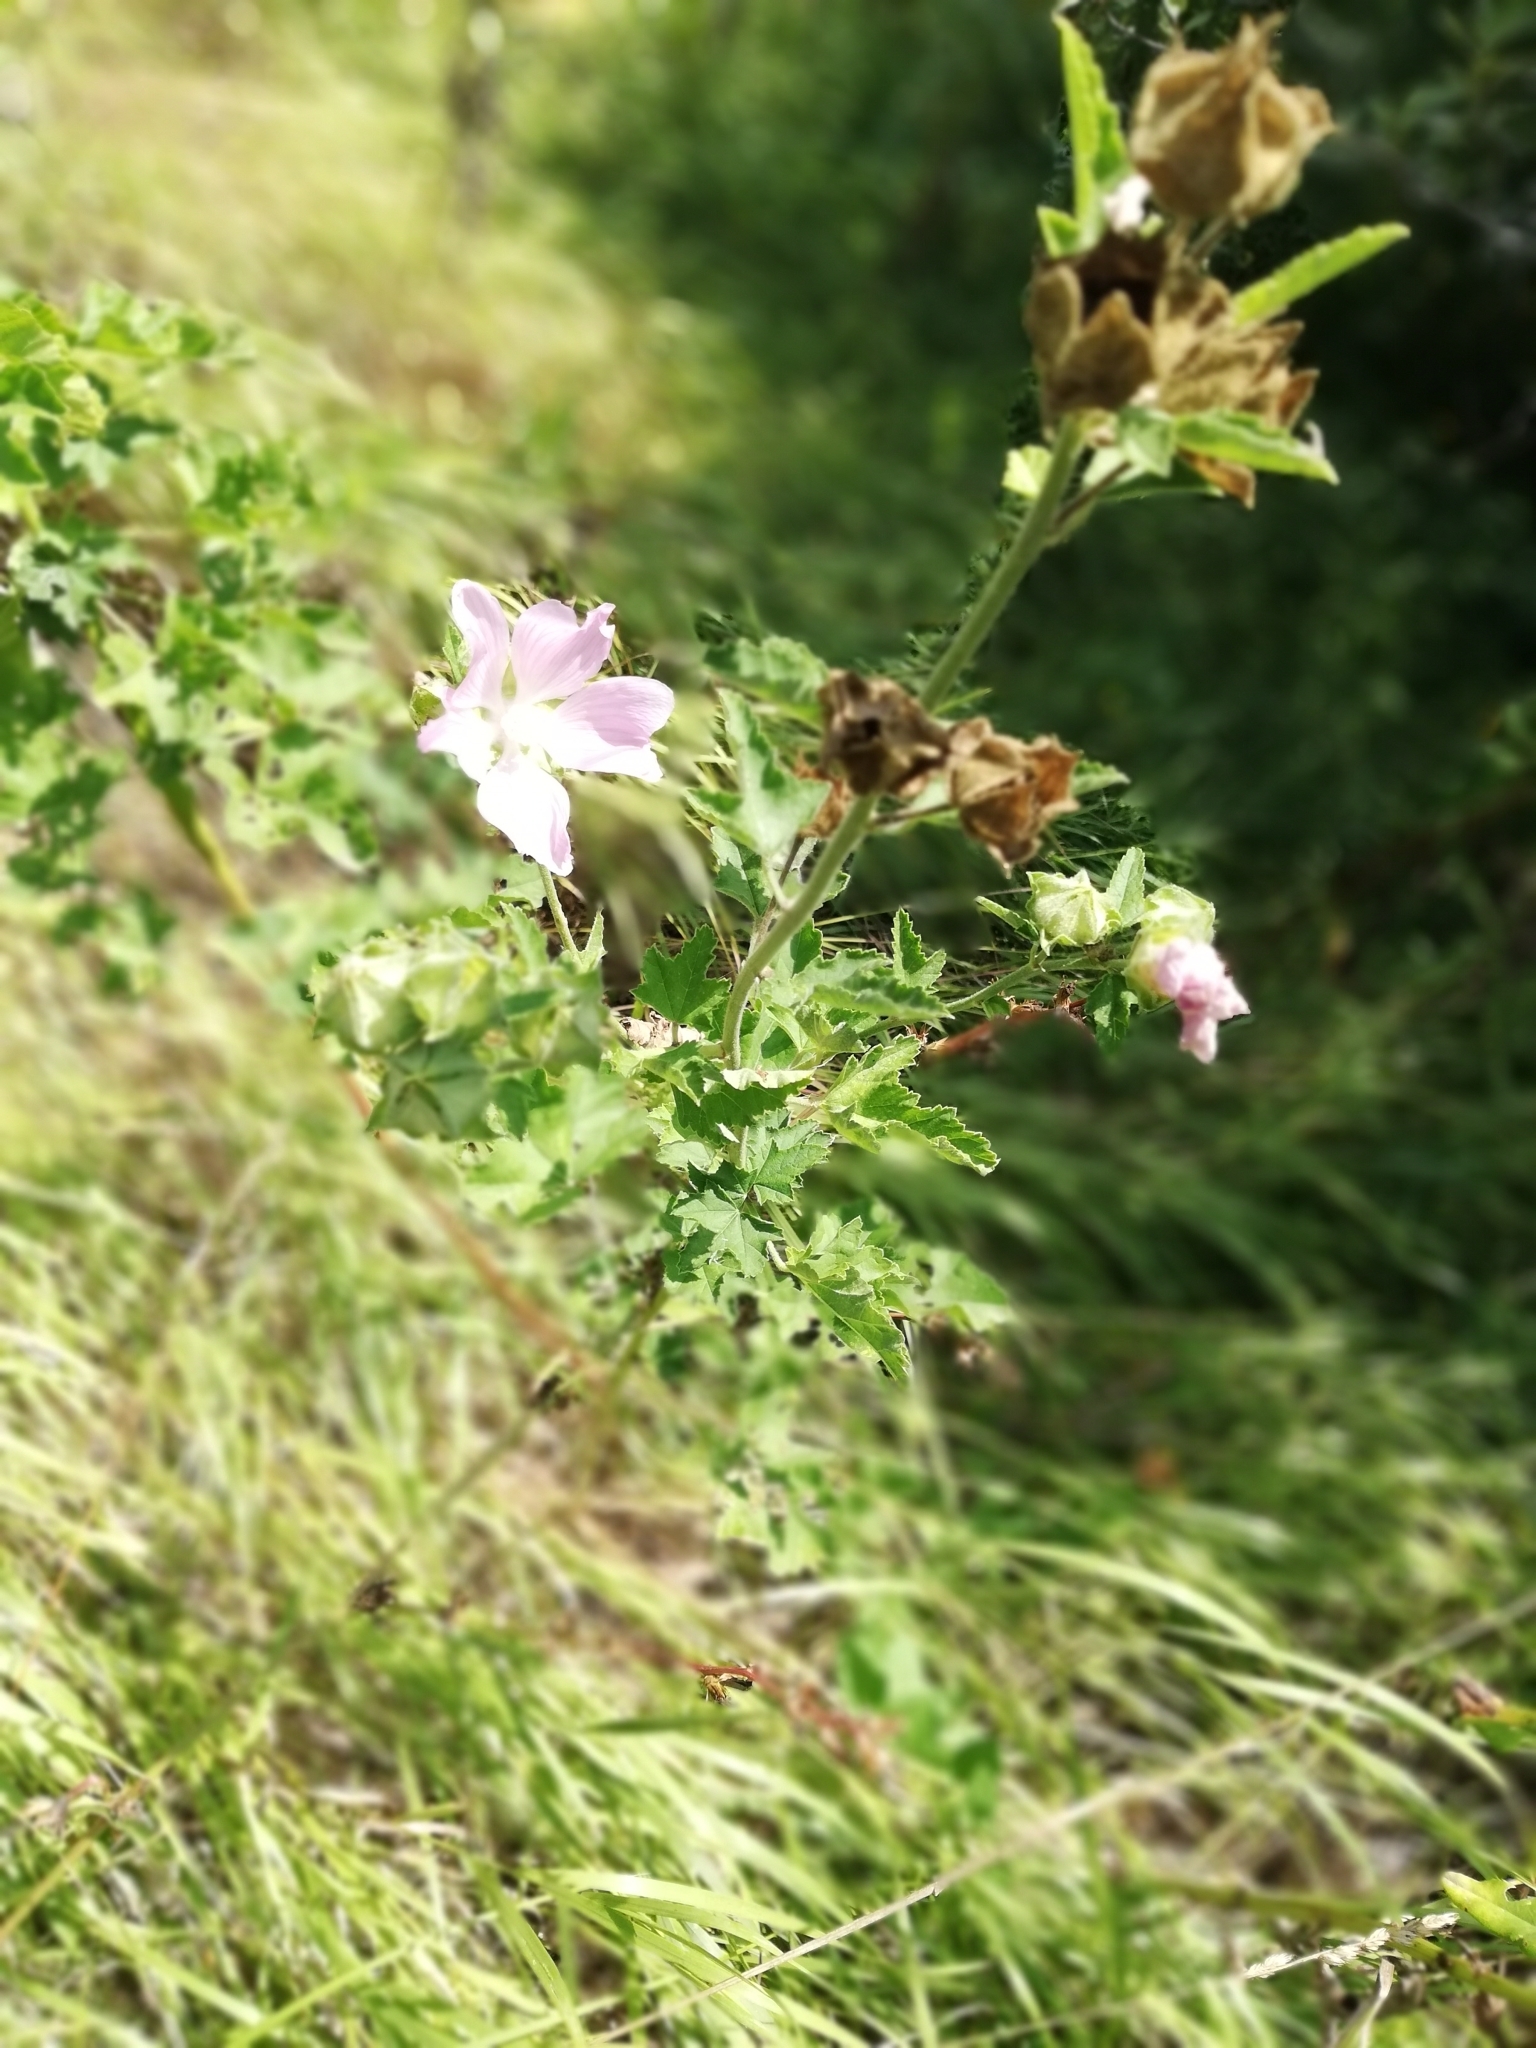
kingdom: Plantae
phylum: Tracheophyta
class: Magnoliopsida
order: Malvales
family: Malvaceae
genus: Malva
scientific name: Malva thuringiaca
